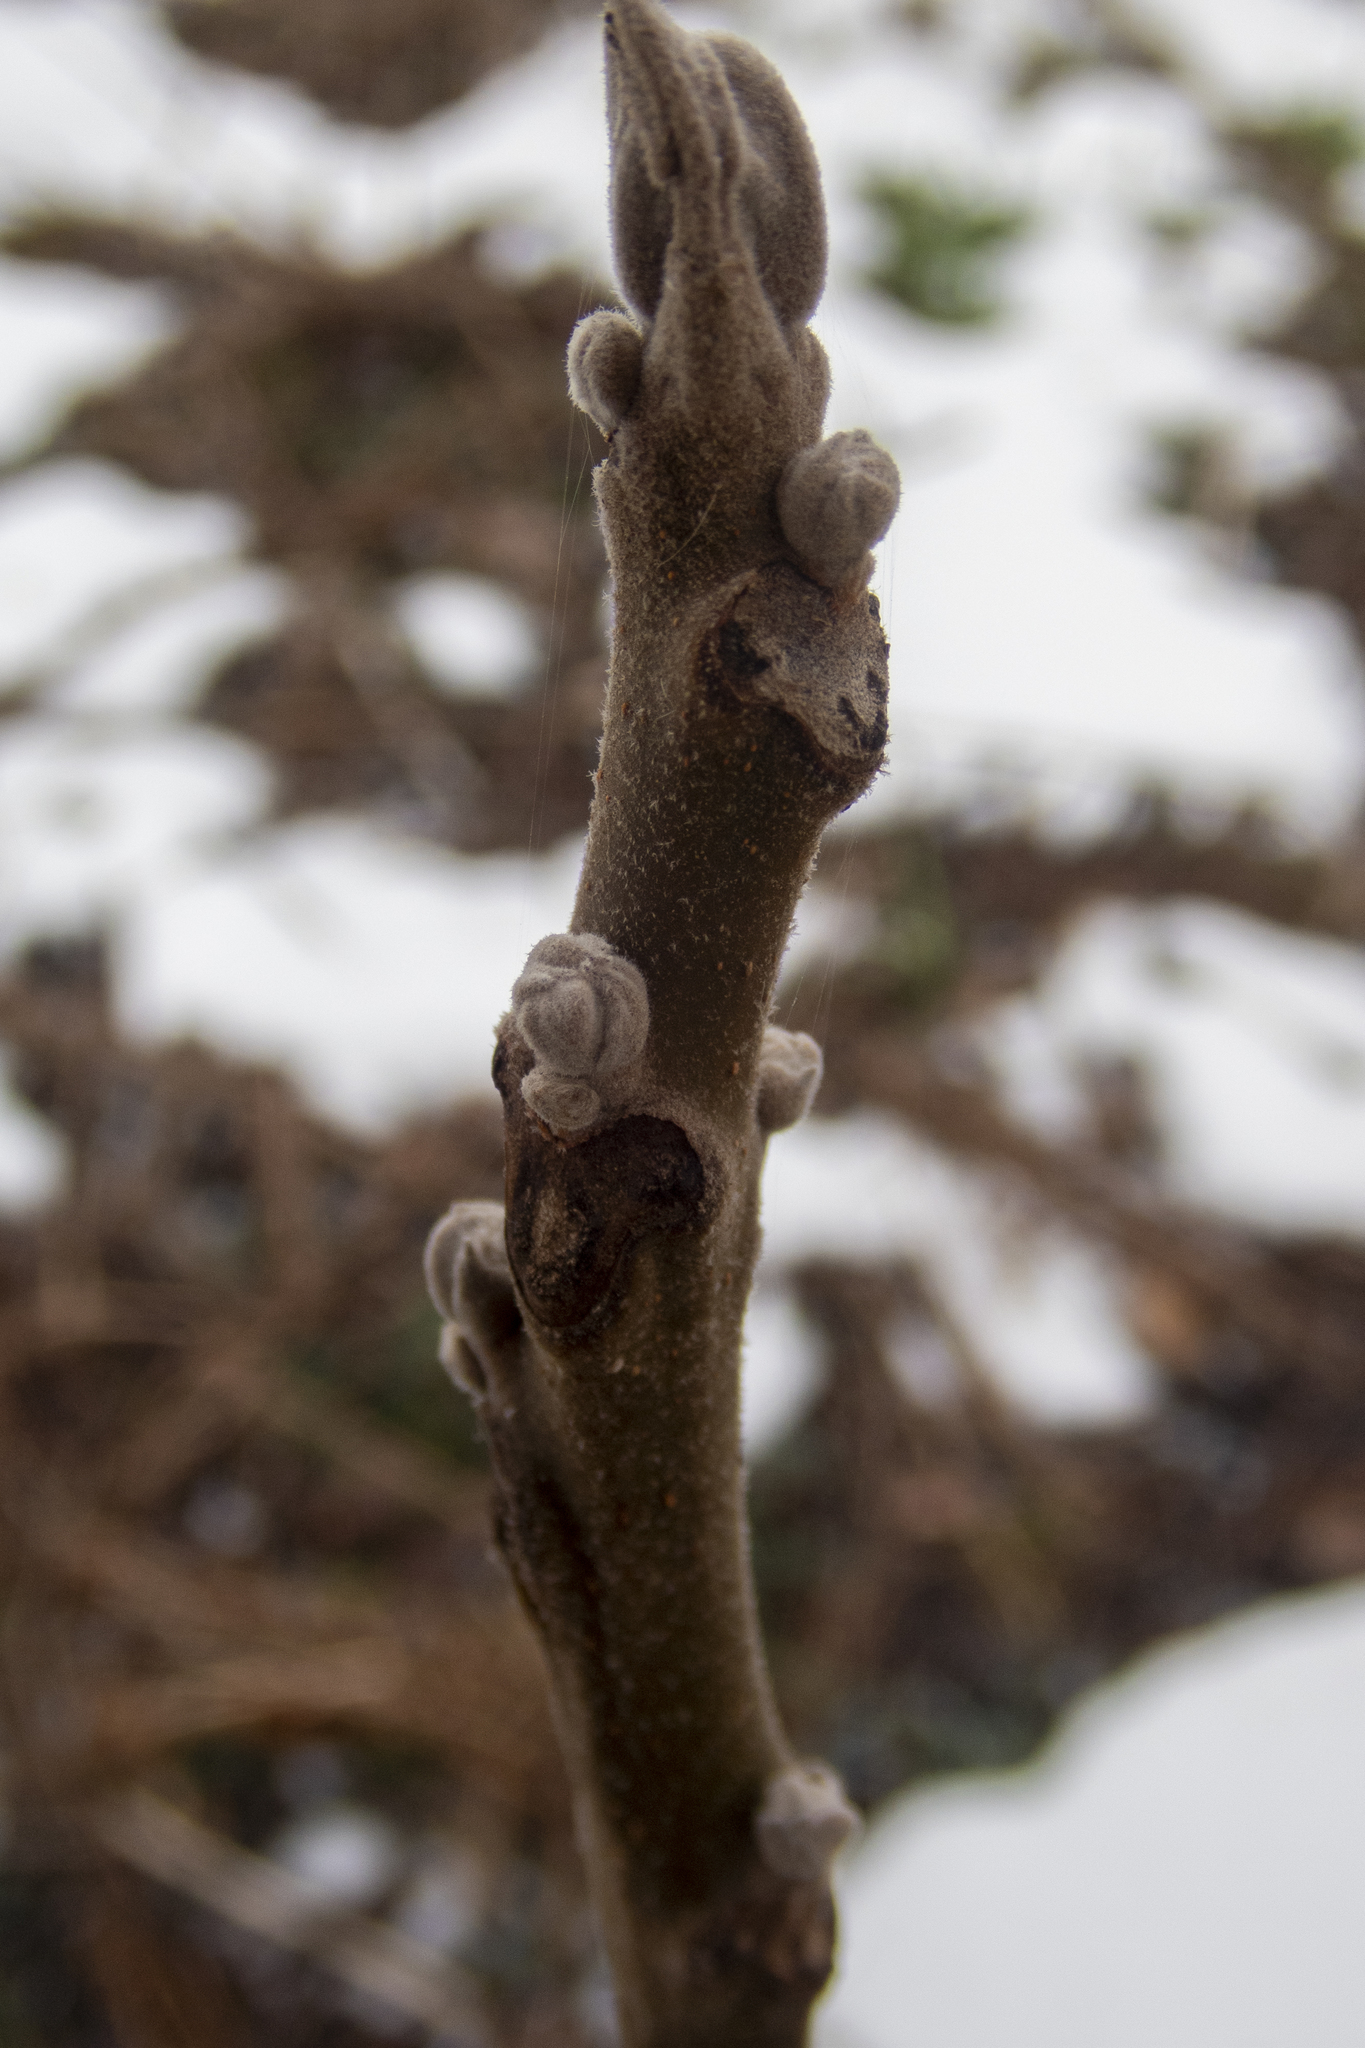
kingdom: Plantae
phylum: Tracheophyta
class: Magnoliopsida
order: Fagales
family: Juglandaceae
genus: Juglans
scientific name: Juglans nigra
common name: Black walnut
